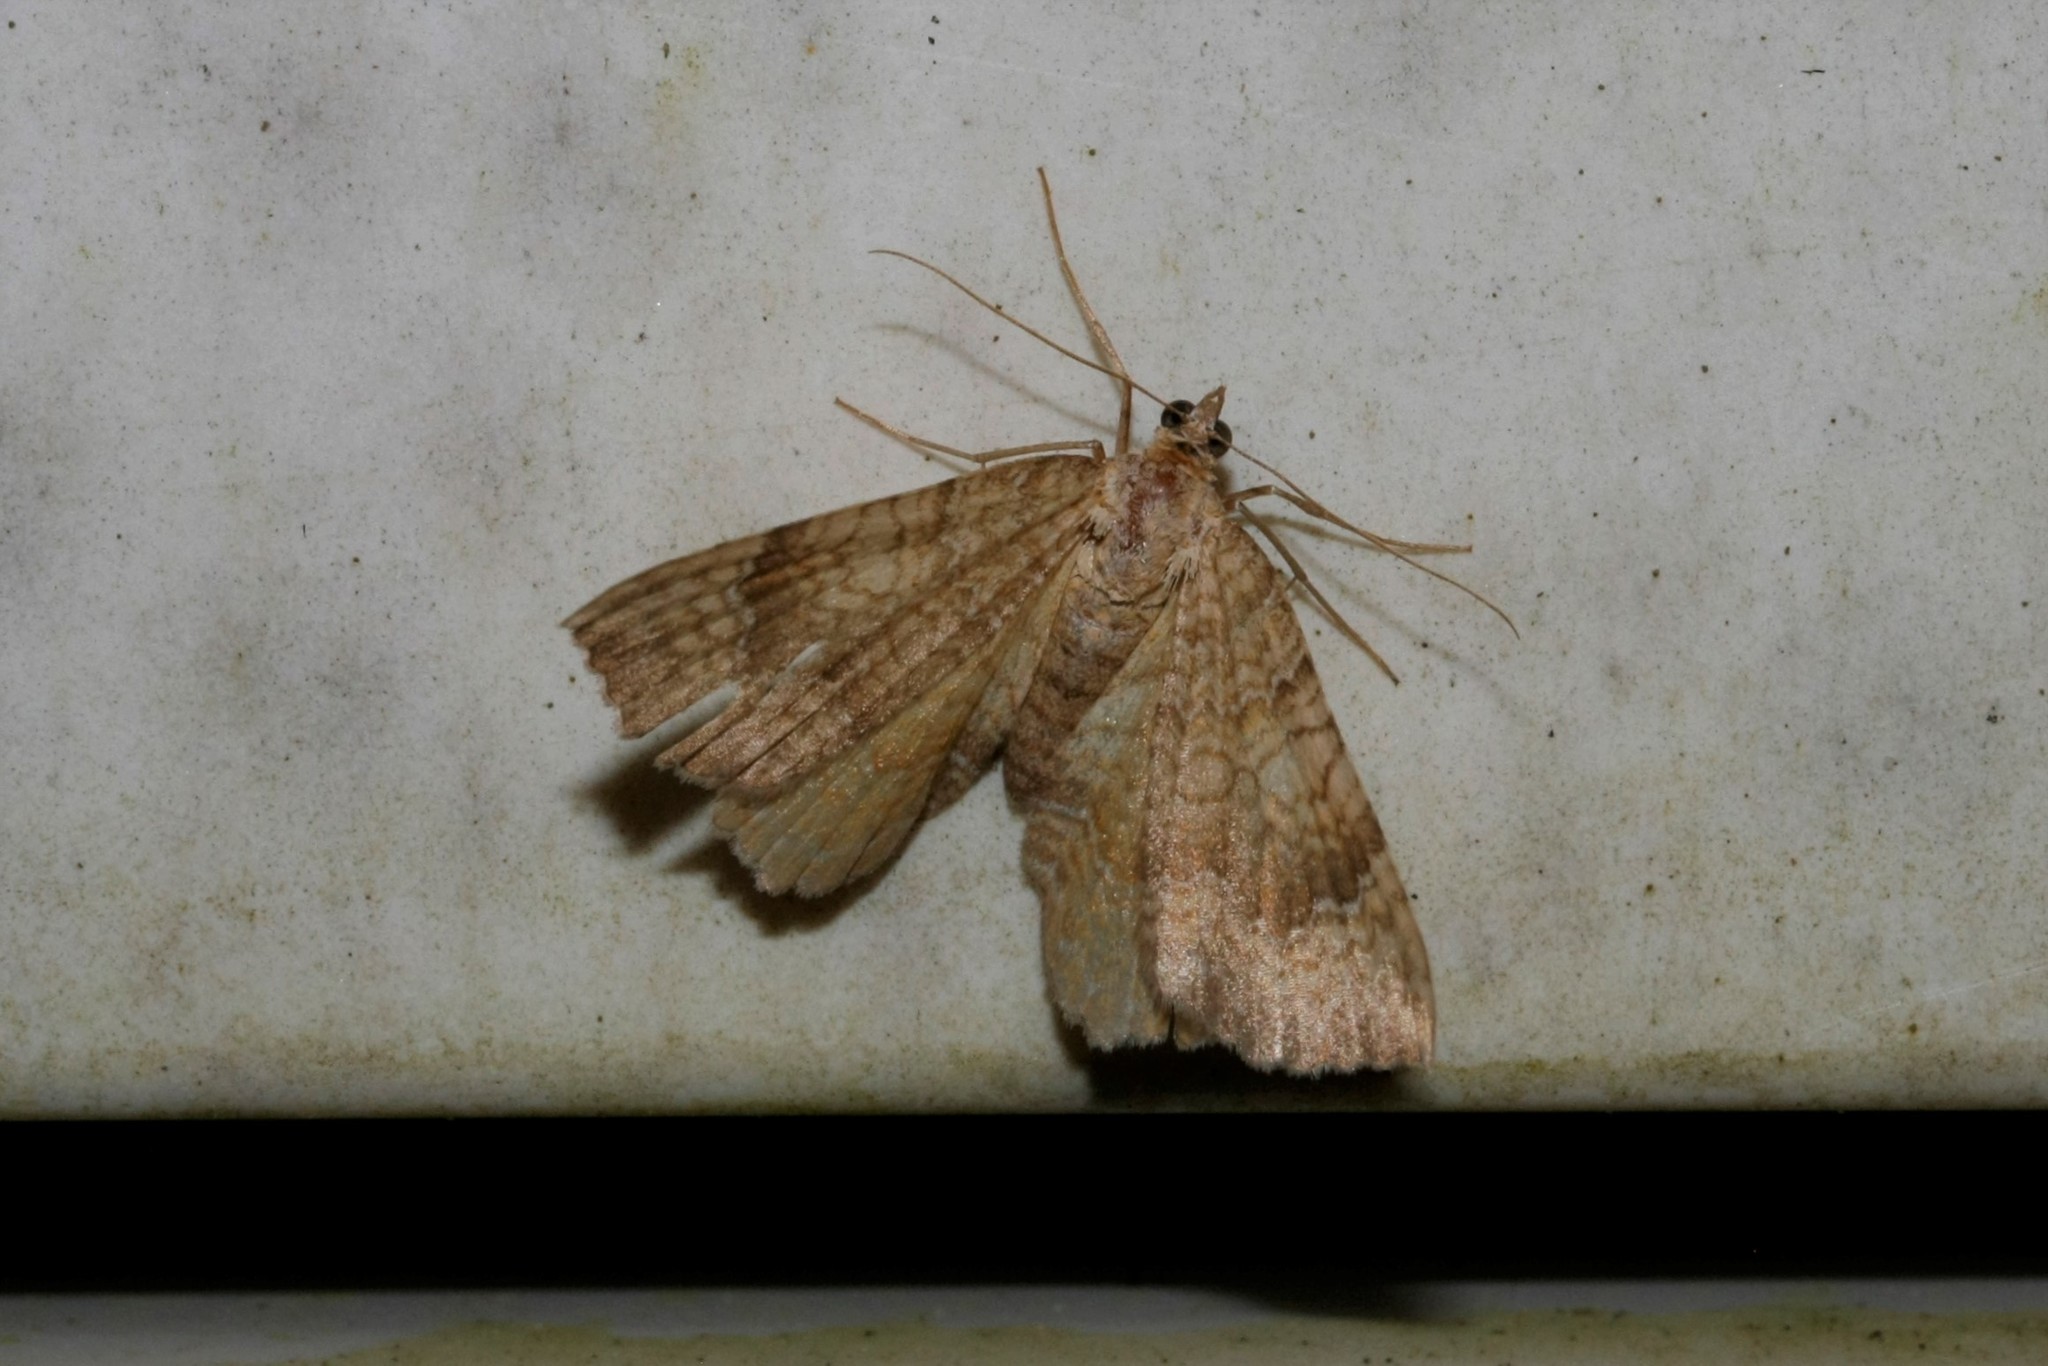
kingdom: Animalia
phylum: Arthropoda
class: Insecta
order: Lepidoptera
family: Geometridae
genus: Camptogramma
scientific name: Camptogramma bilineata
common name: Yellow shell
